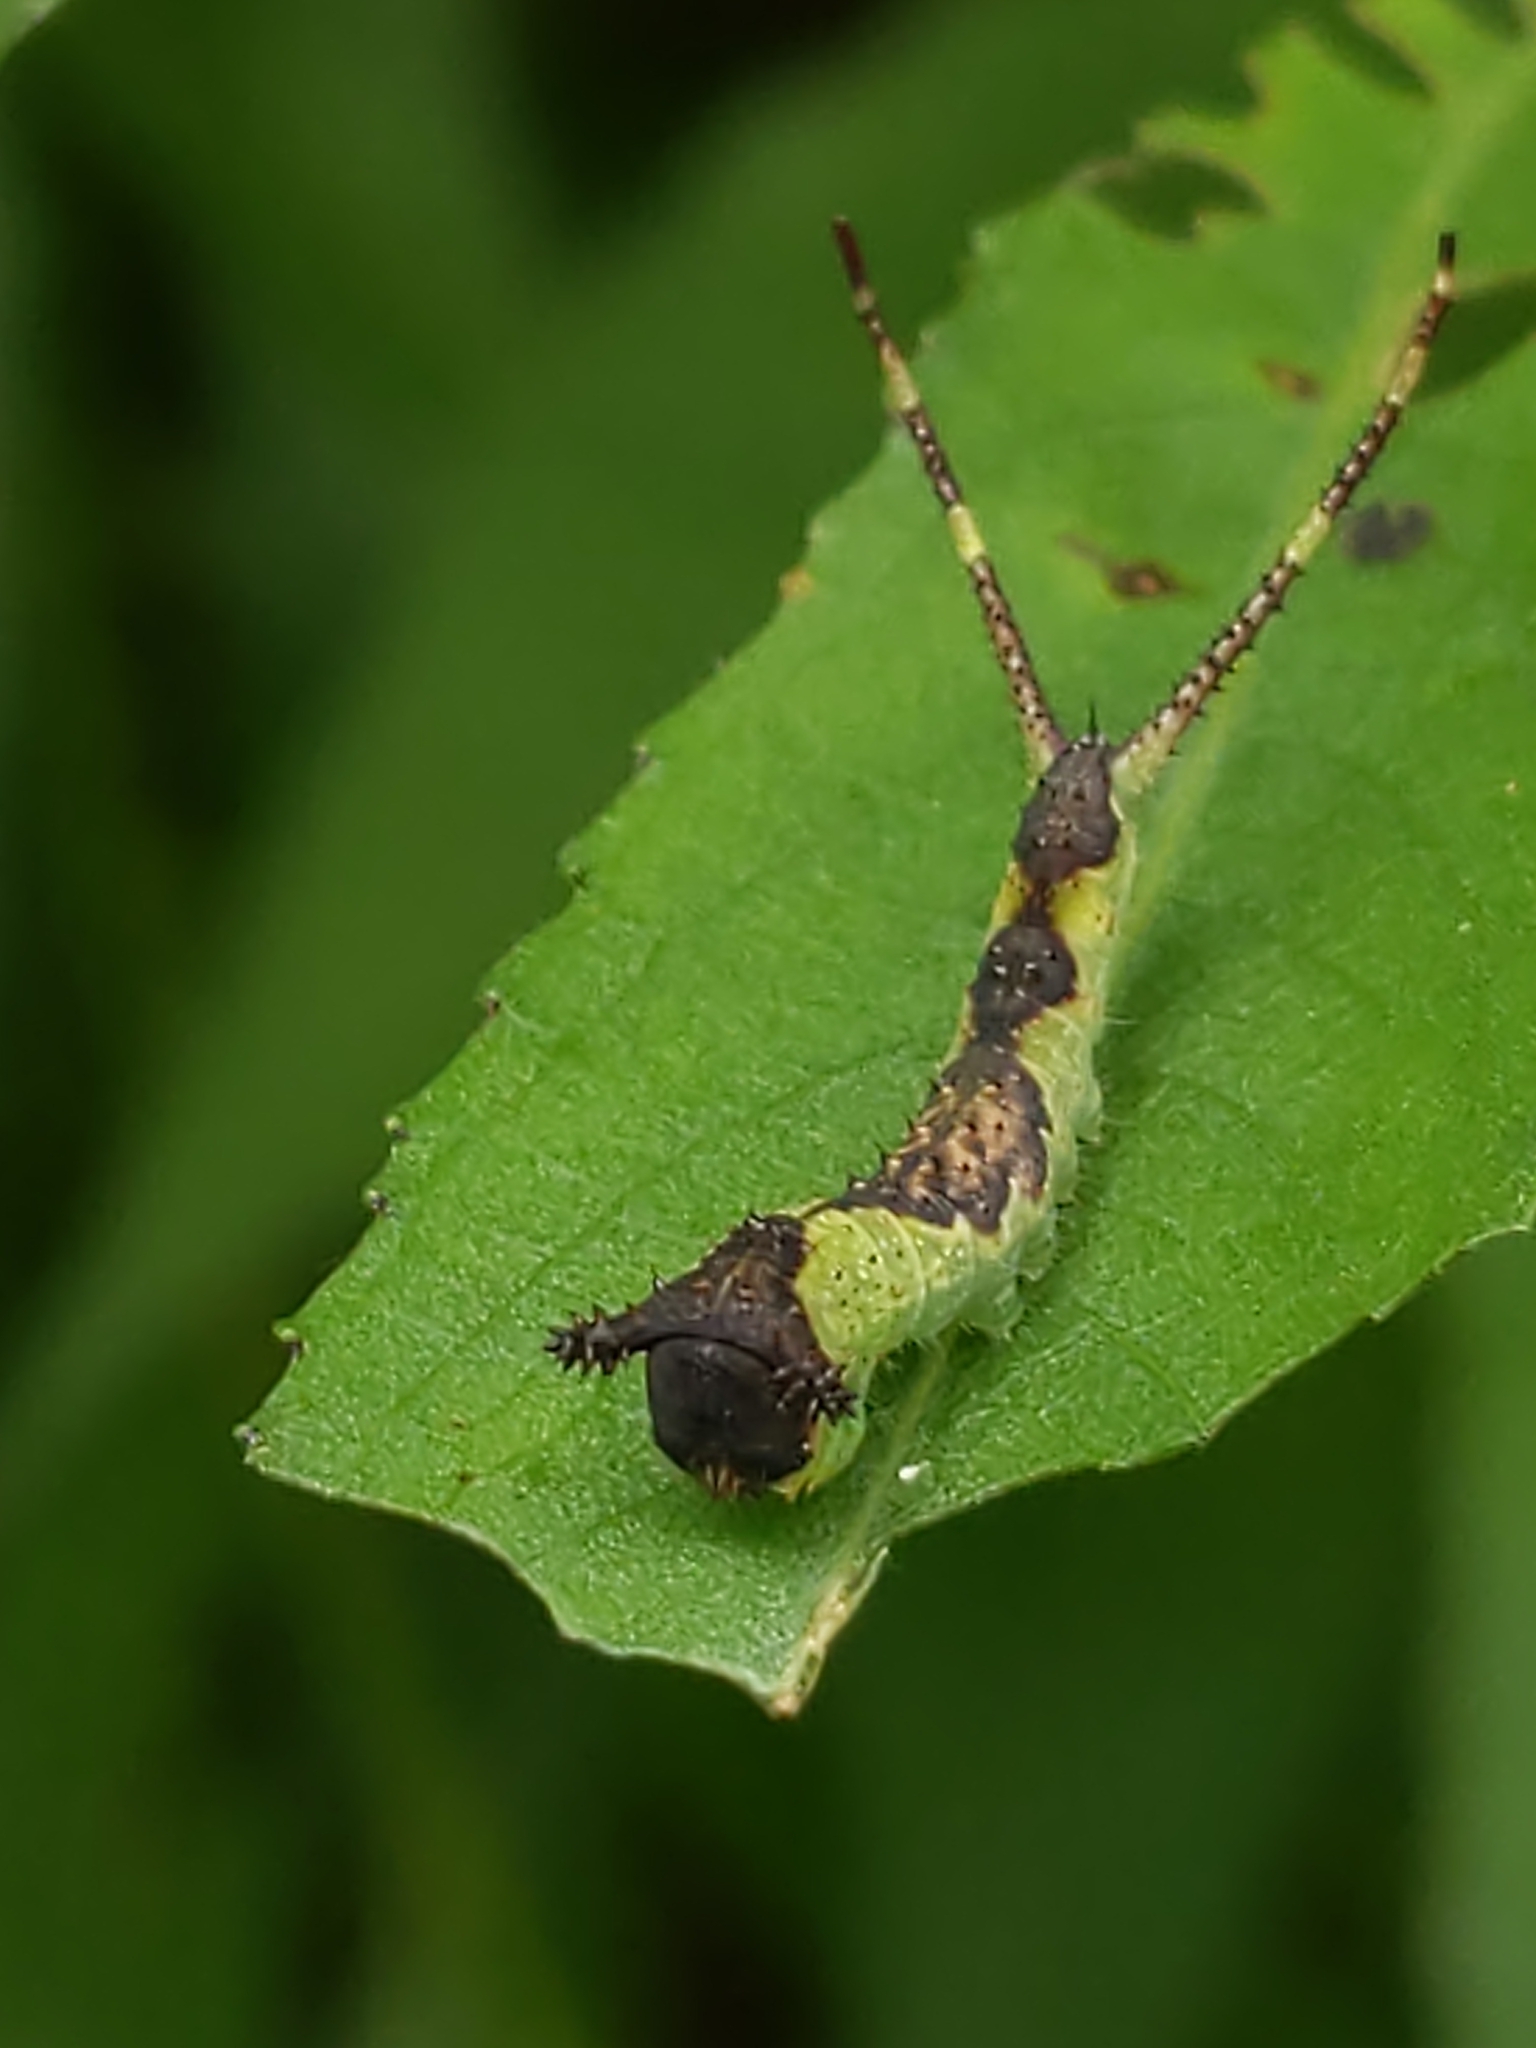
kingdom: Animalia
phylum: Arthropoda
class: Insecta
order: Lepidoptera
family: Notodontidae
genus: Furcula
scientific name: Furcula
